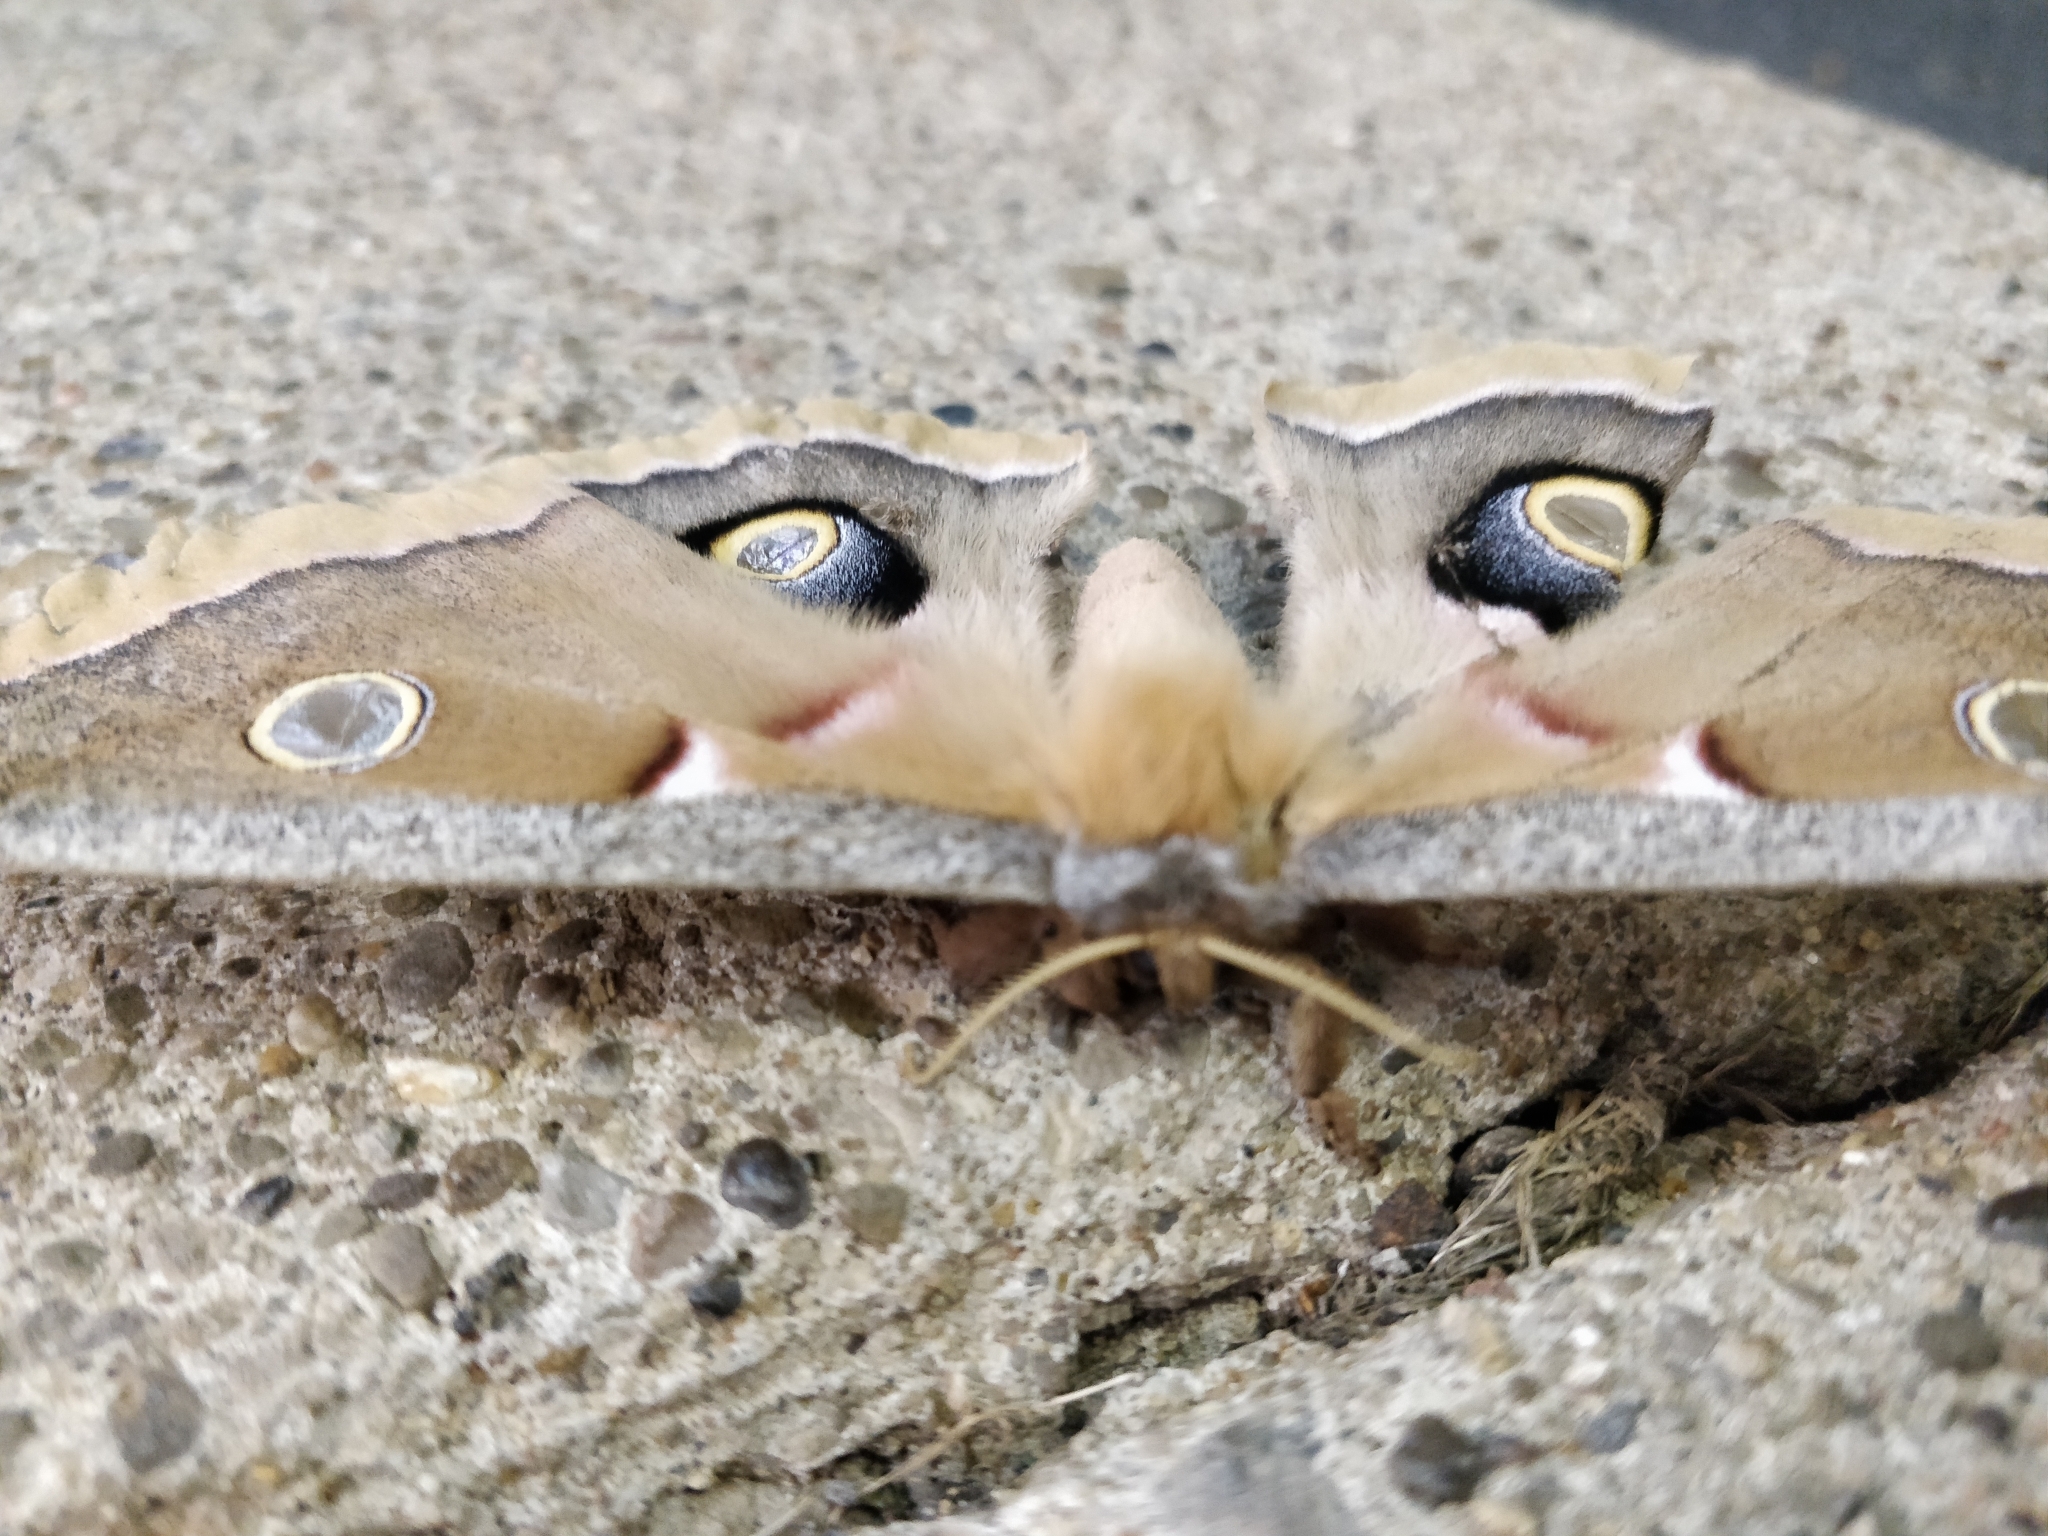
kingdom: Animalia
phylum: Arthropoda
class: Insecta
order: Lepidoptera
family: Saturniidae
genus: Antheraea
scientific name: Antheraea polyphemus
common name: Polyphemus moth
